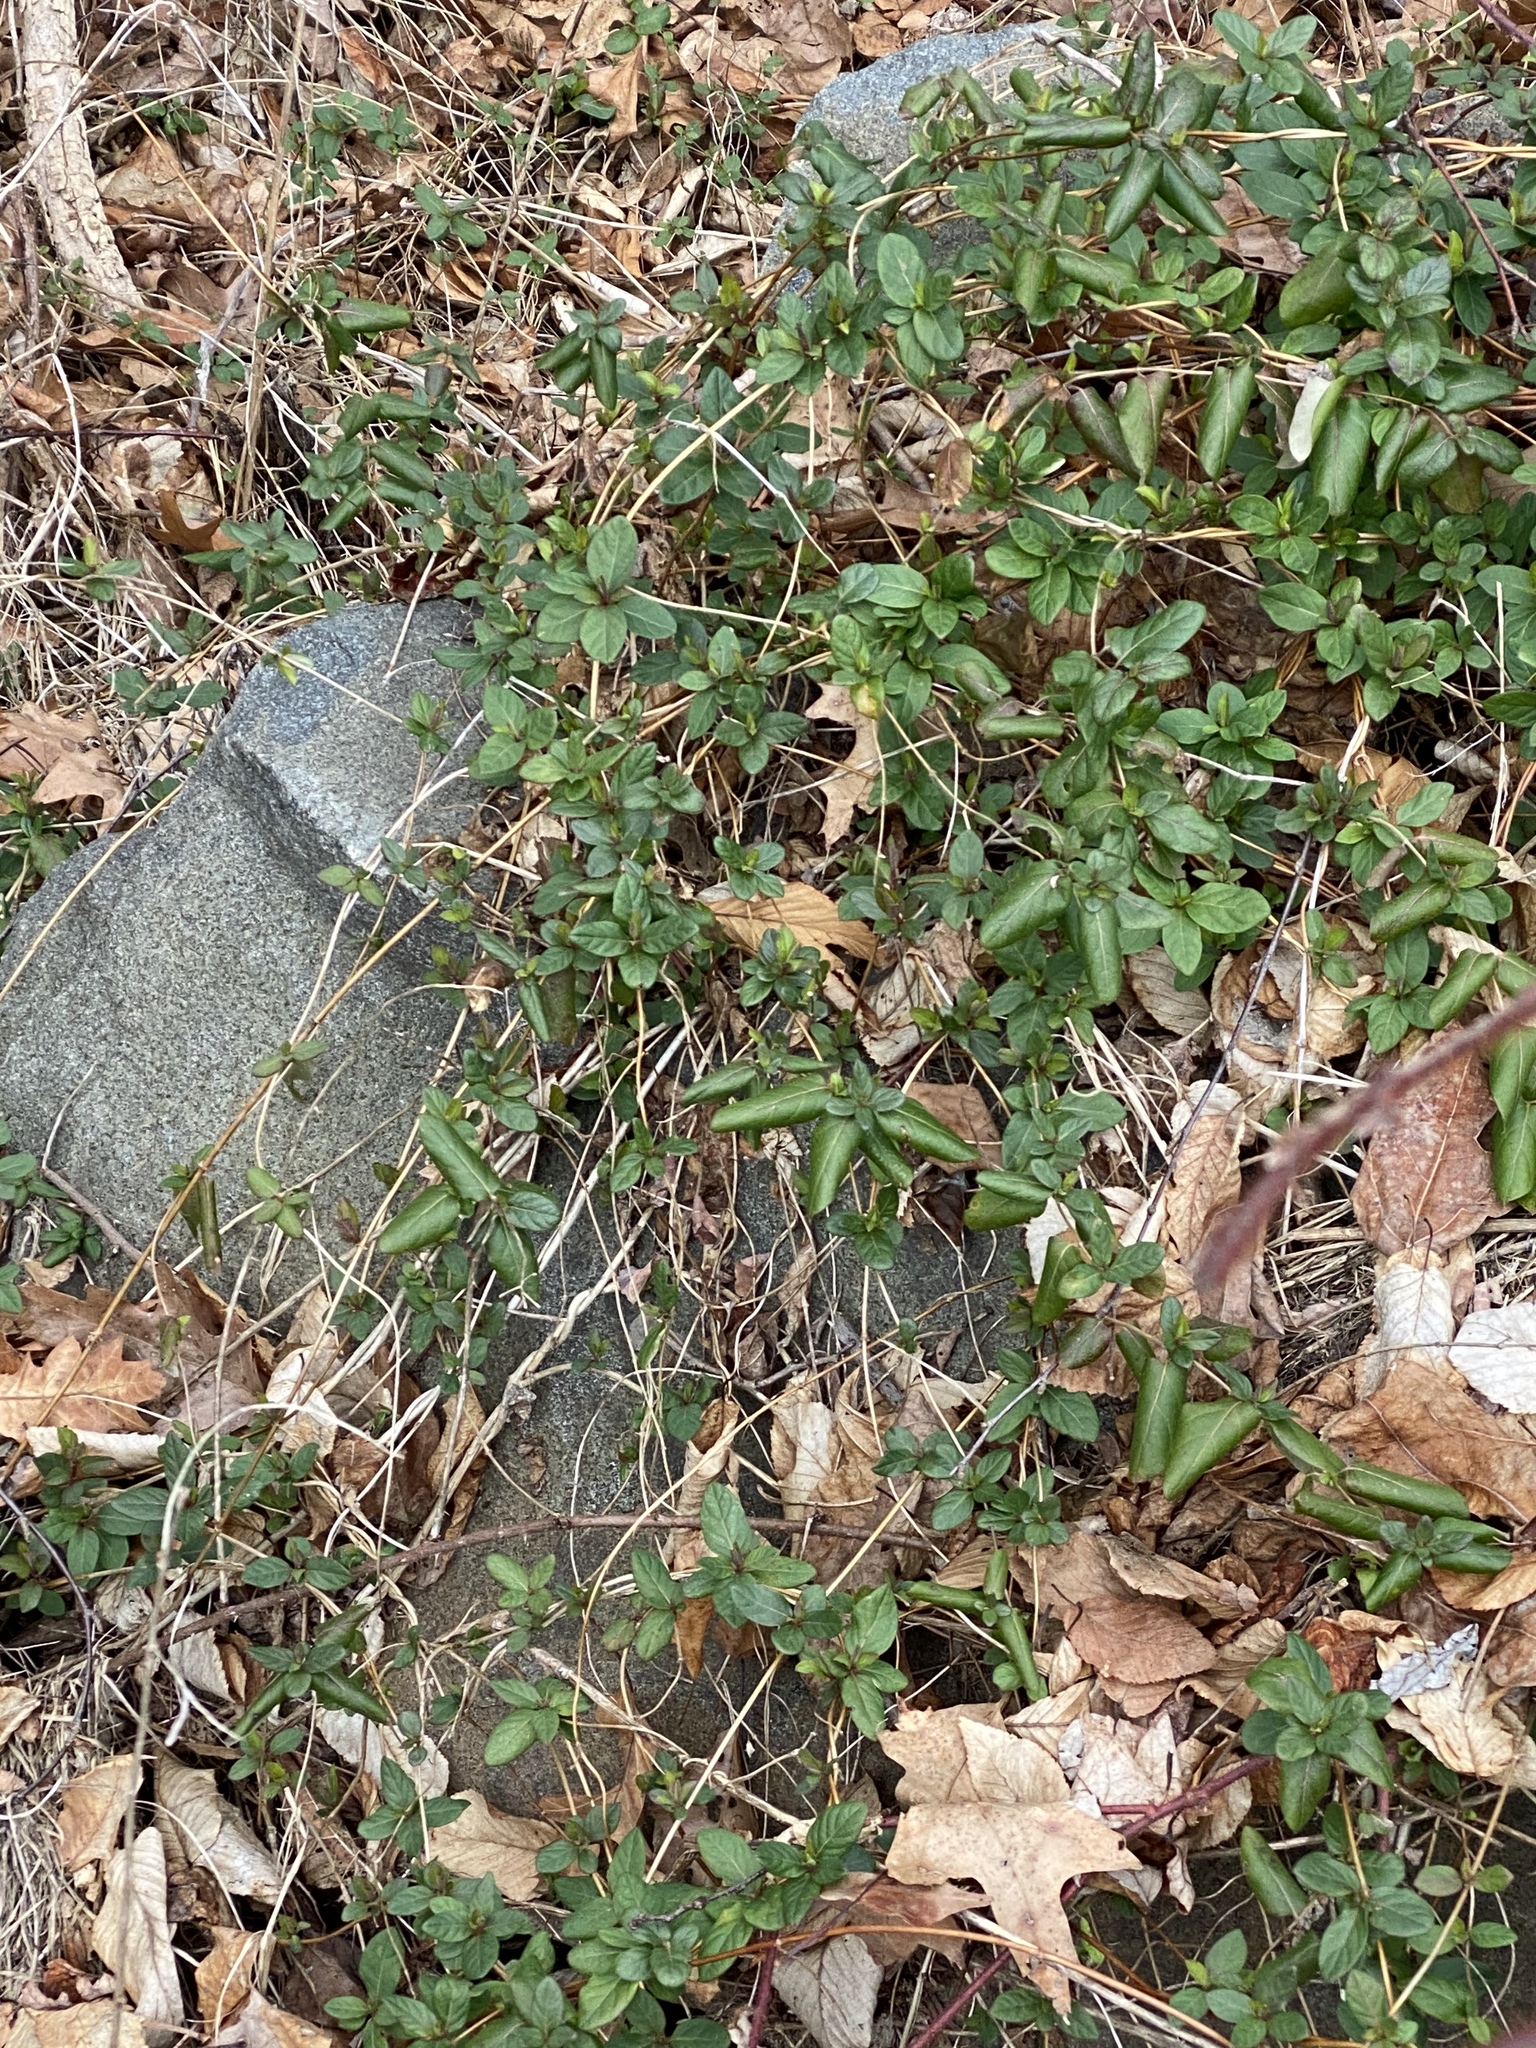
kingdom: Plantae
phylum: Tracheophyta
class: Magnoliopsida
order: Dipsacales
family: Caprifoliaceae
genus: Lonicera
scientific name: Lonicera japonica
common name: Japanese honeysuckle
